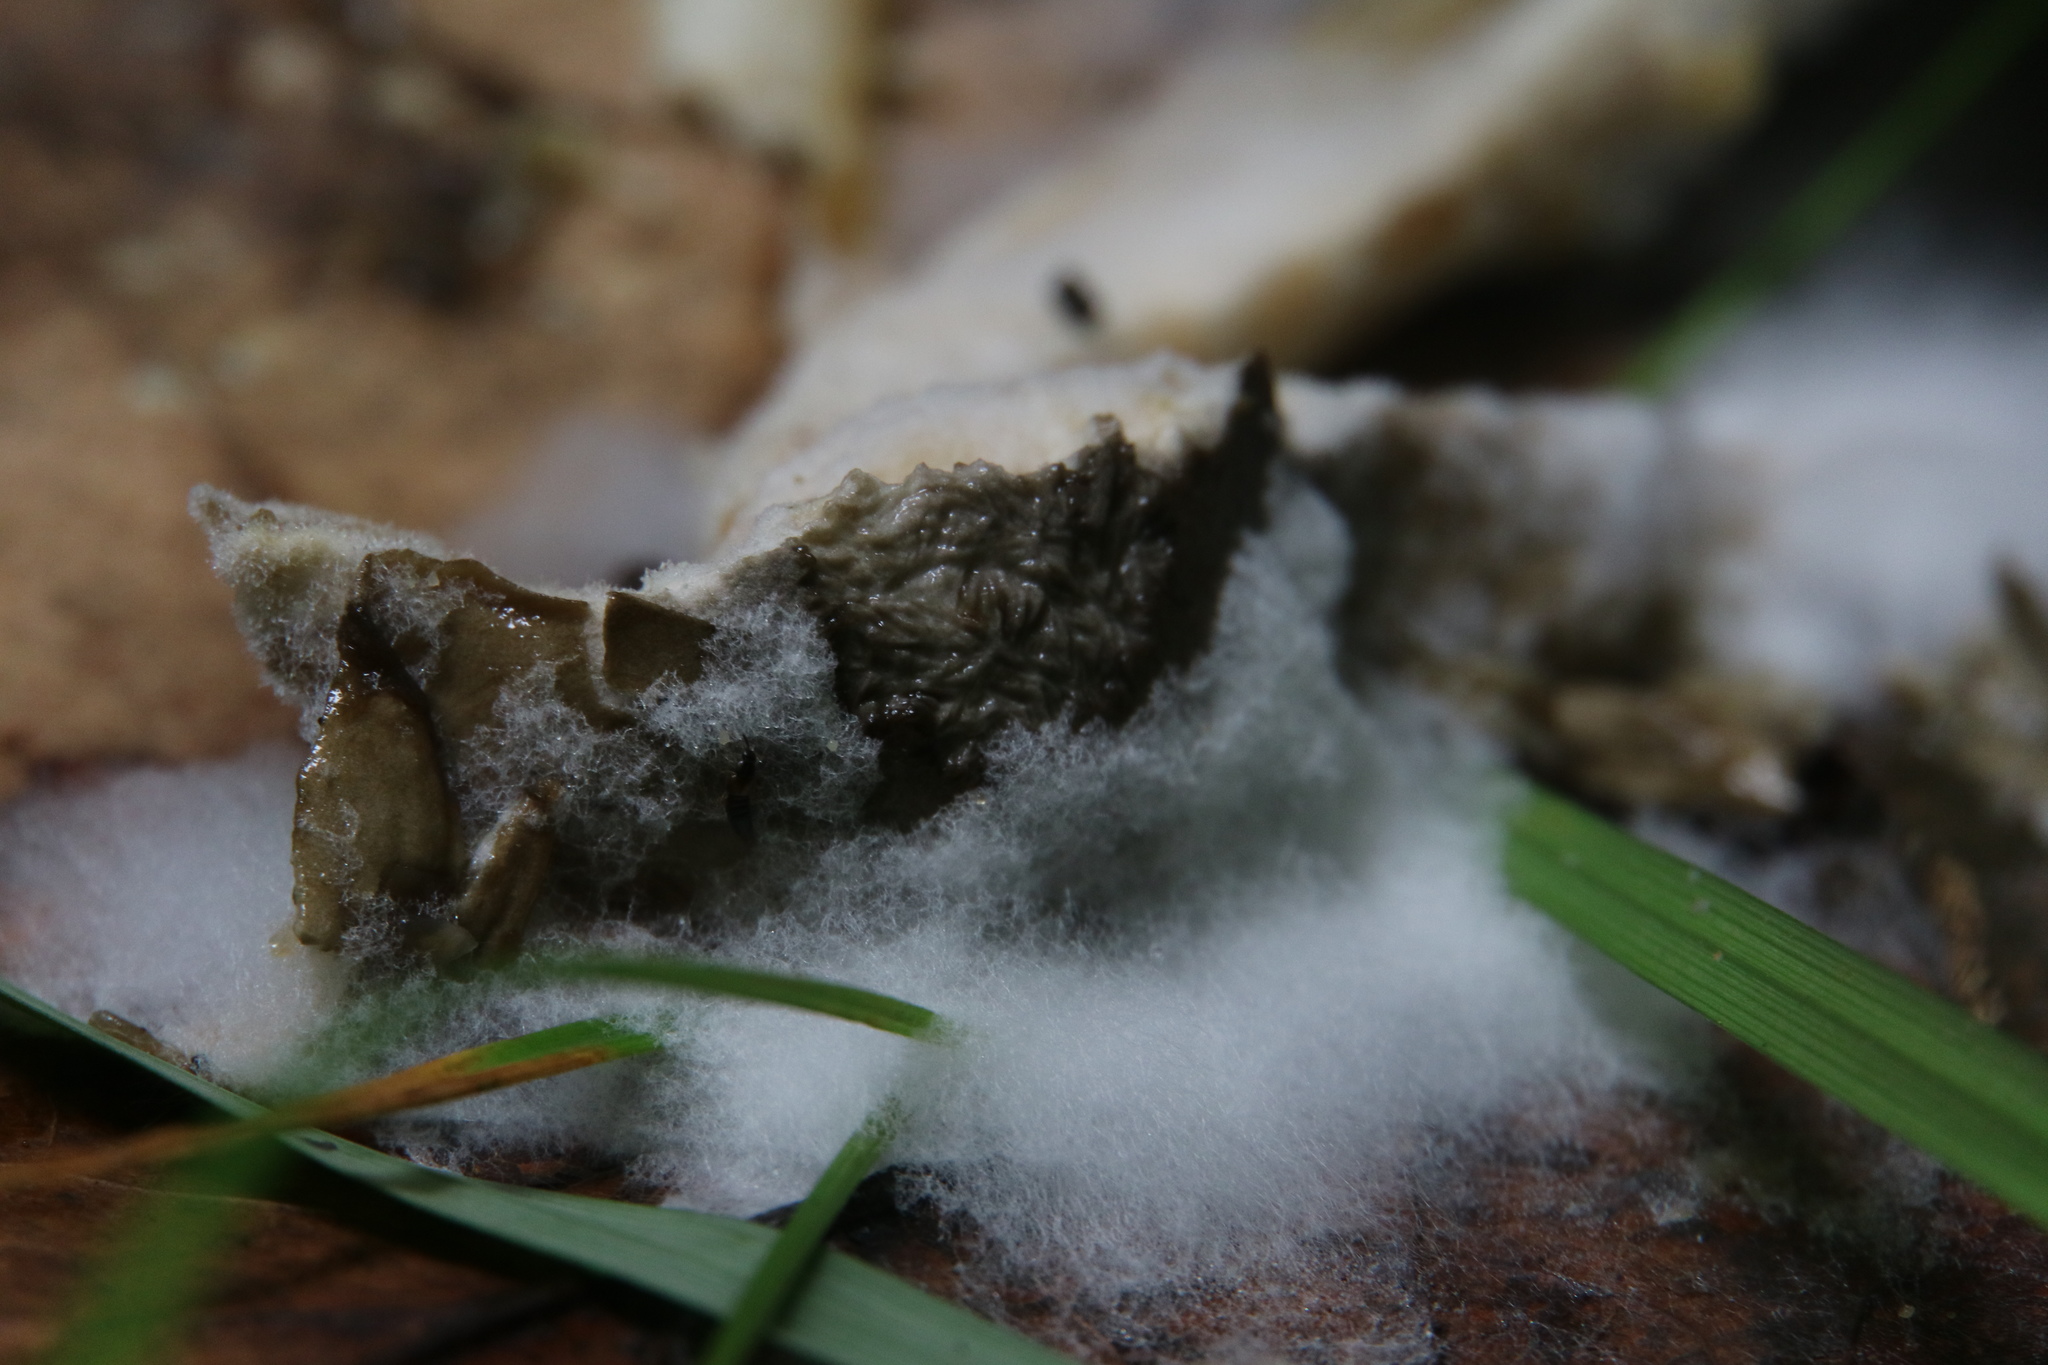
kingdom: Fungi
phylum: Mucoromycota
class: Mucoromycetes
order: Mucorales
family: Rhizopodaceae
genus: Syzygites
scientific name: Syzygites megalocarpus
